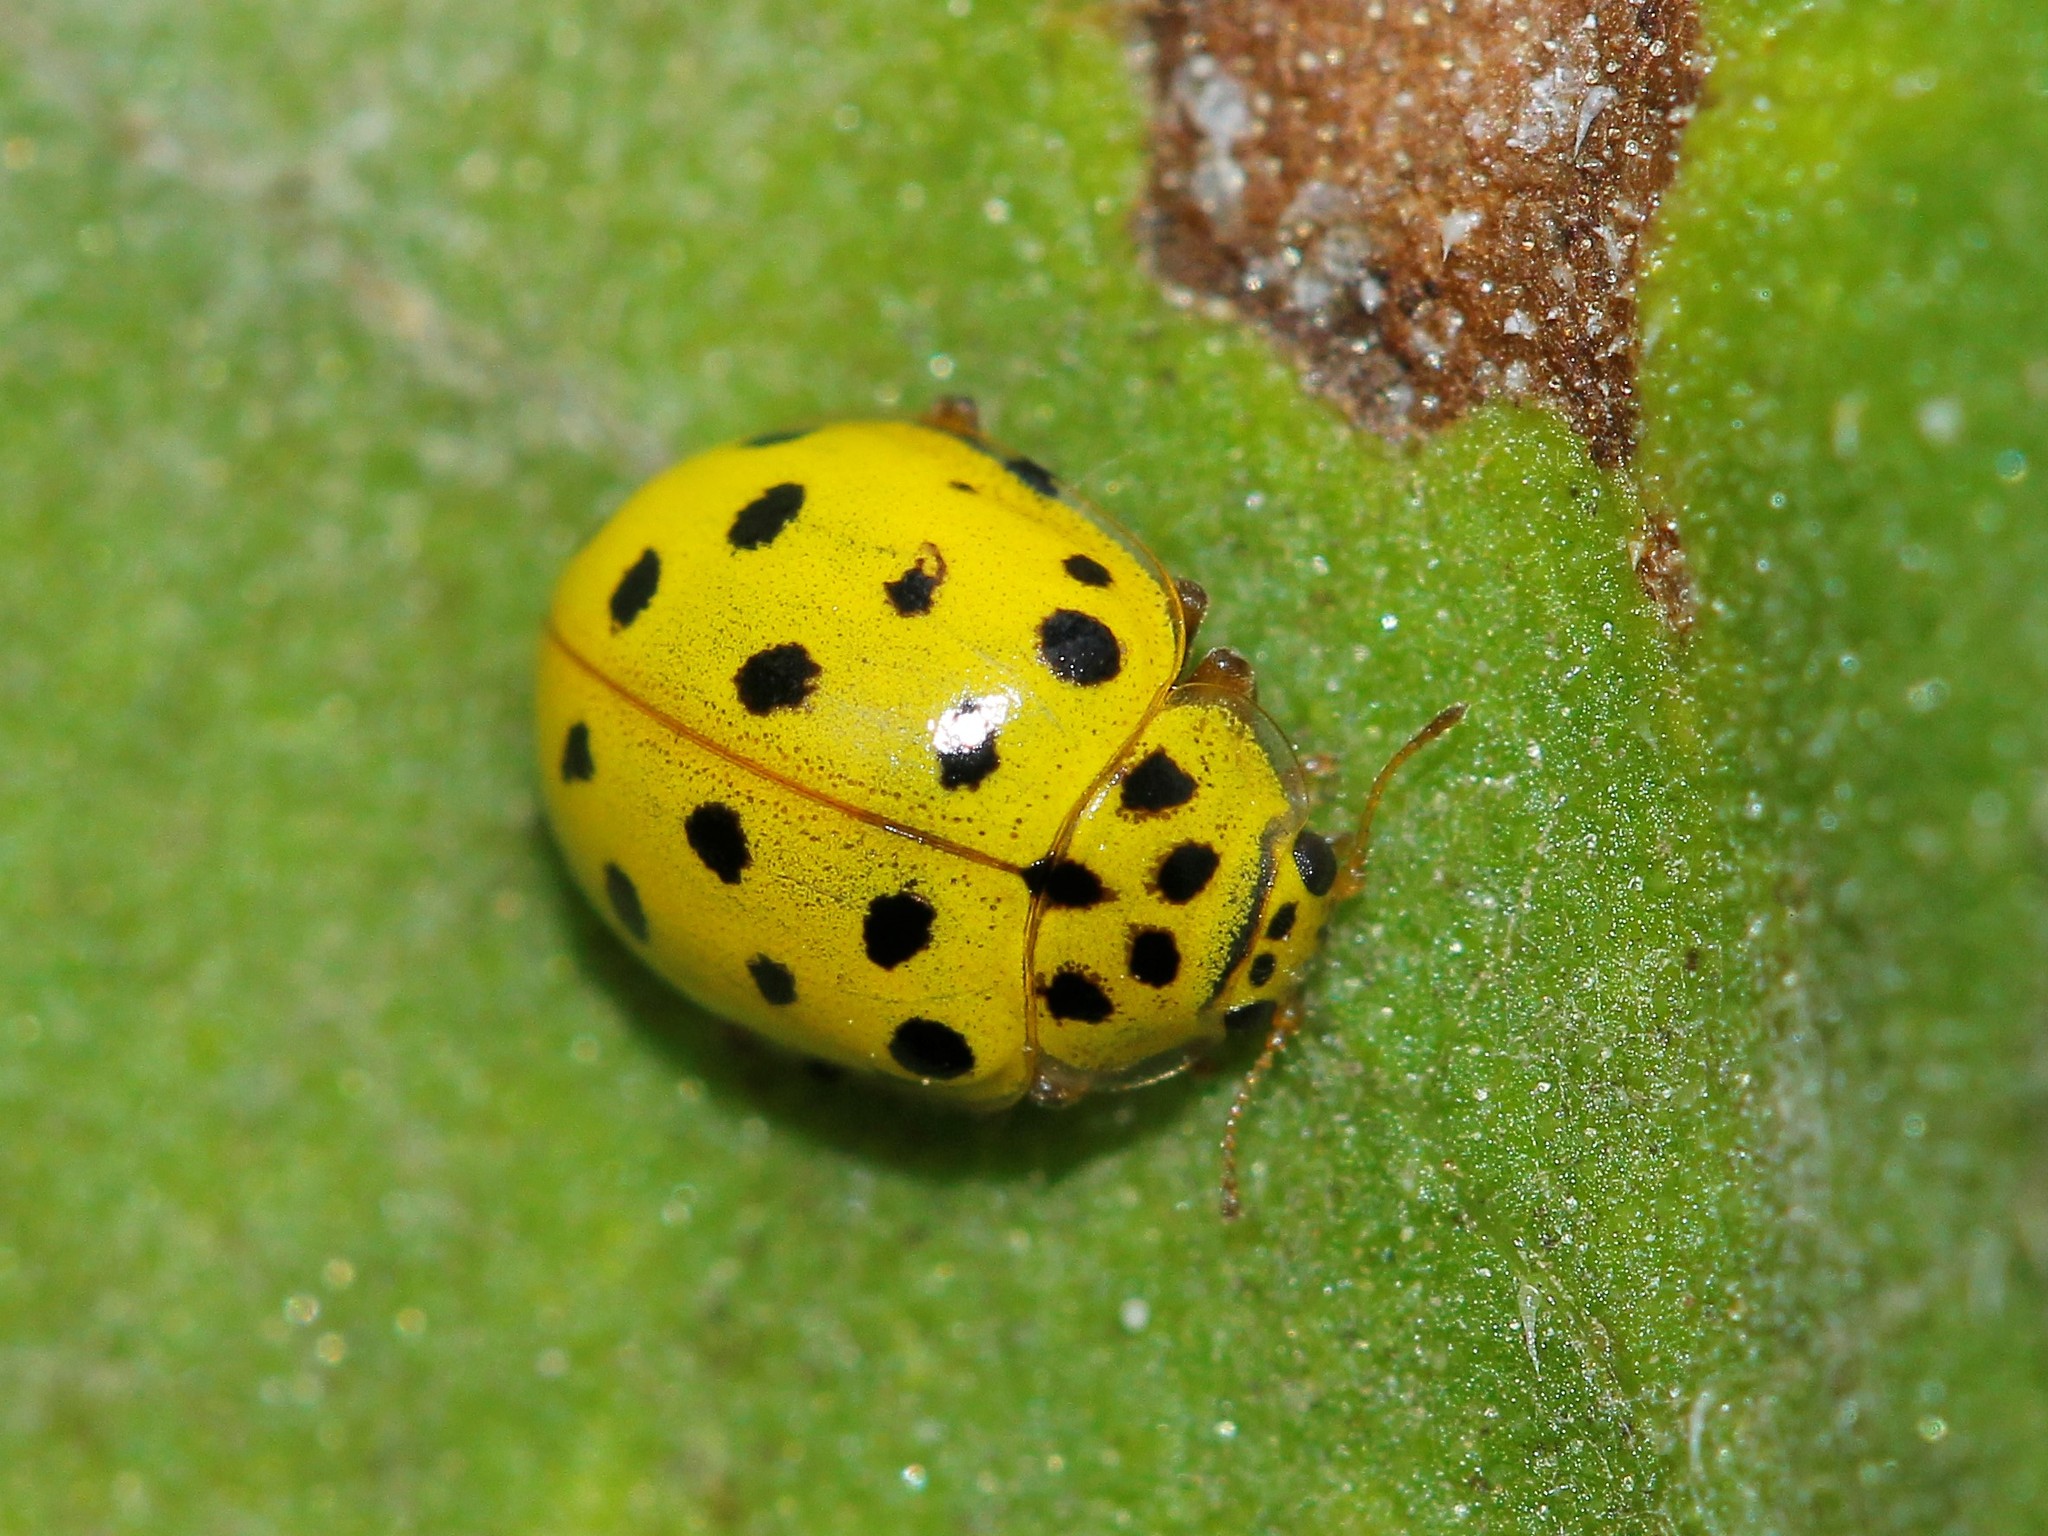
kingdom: Animalia
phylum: Arthropoda
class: Insecta
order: Coleoptera
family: Coccinellidae
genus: Psyllobora
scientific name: Psyllobora vigintiduopunctata
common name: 22-spot ladybird
